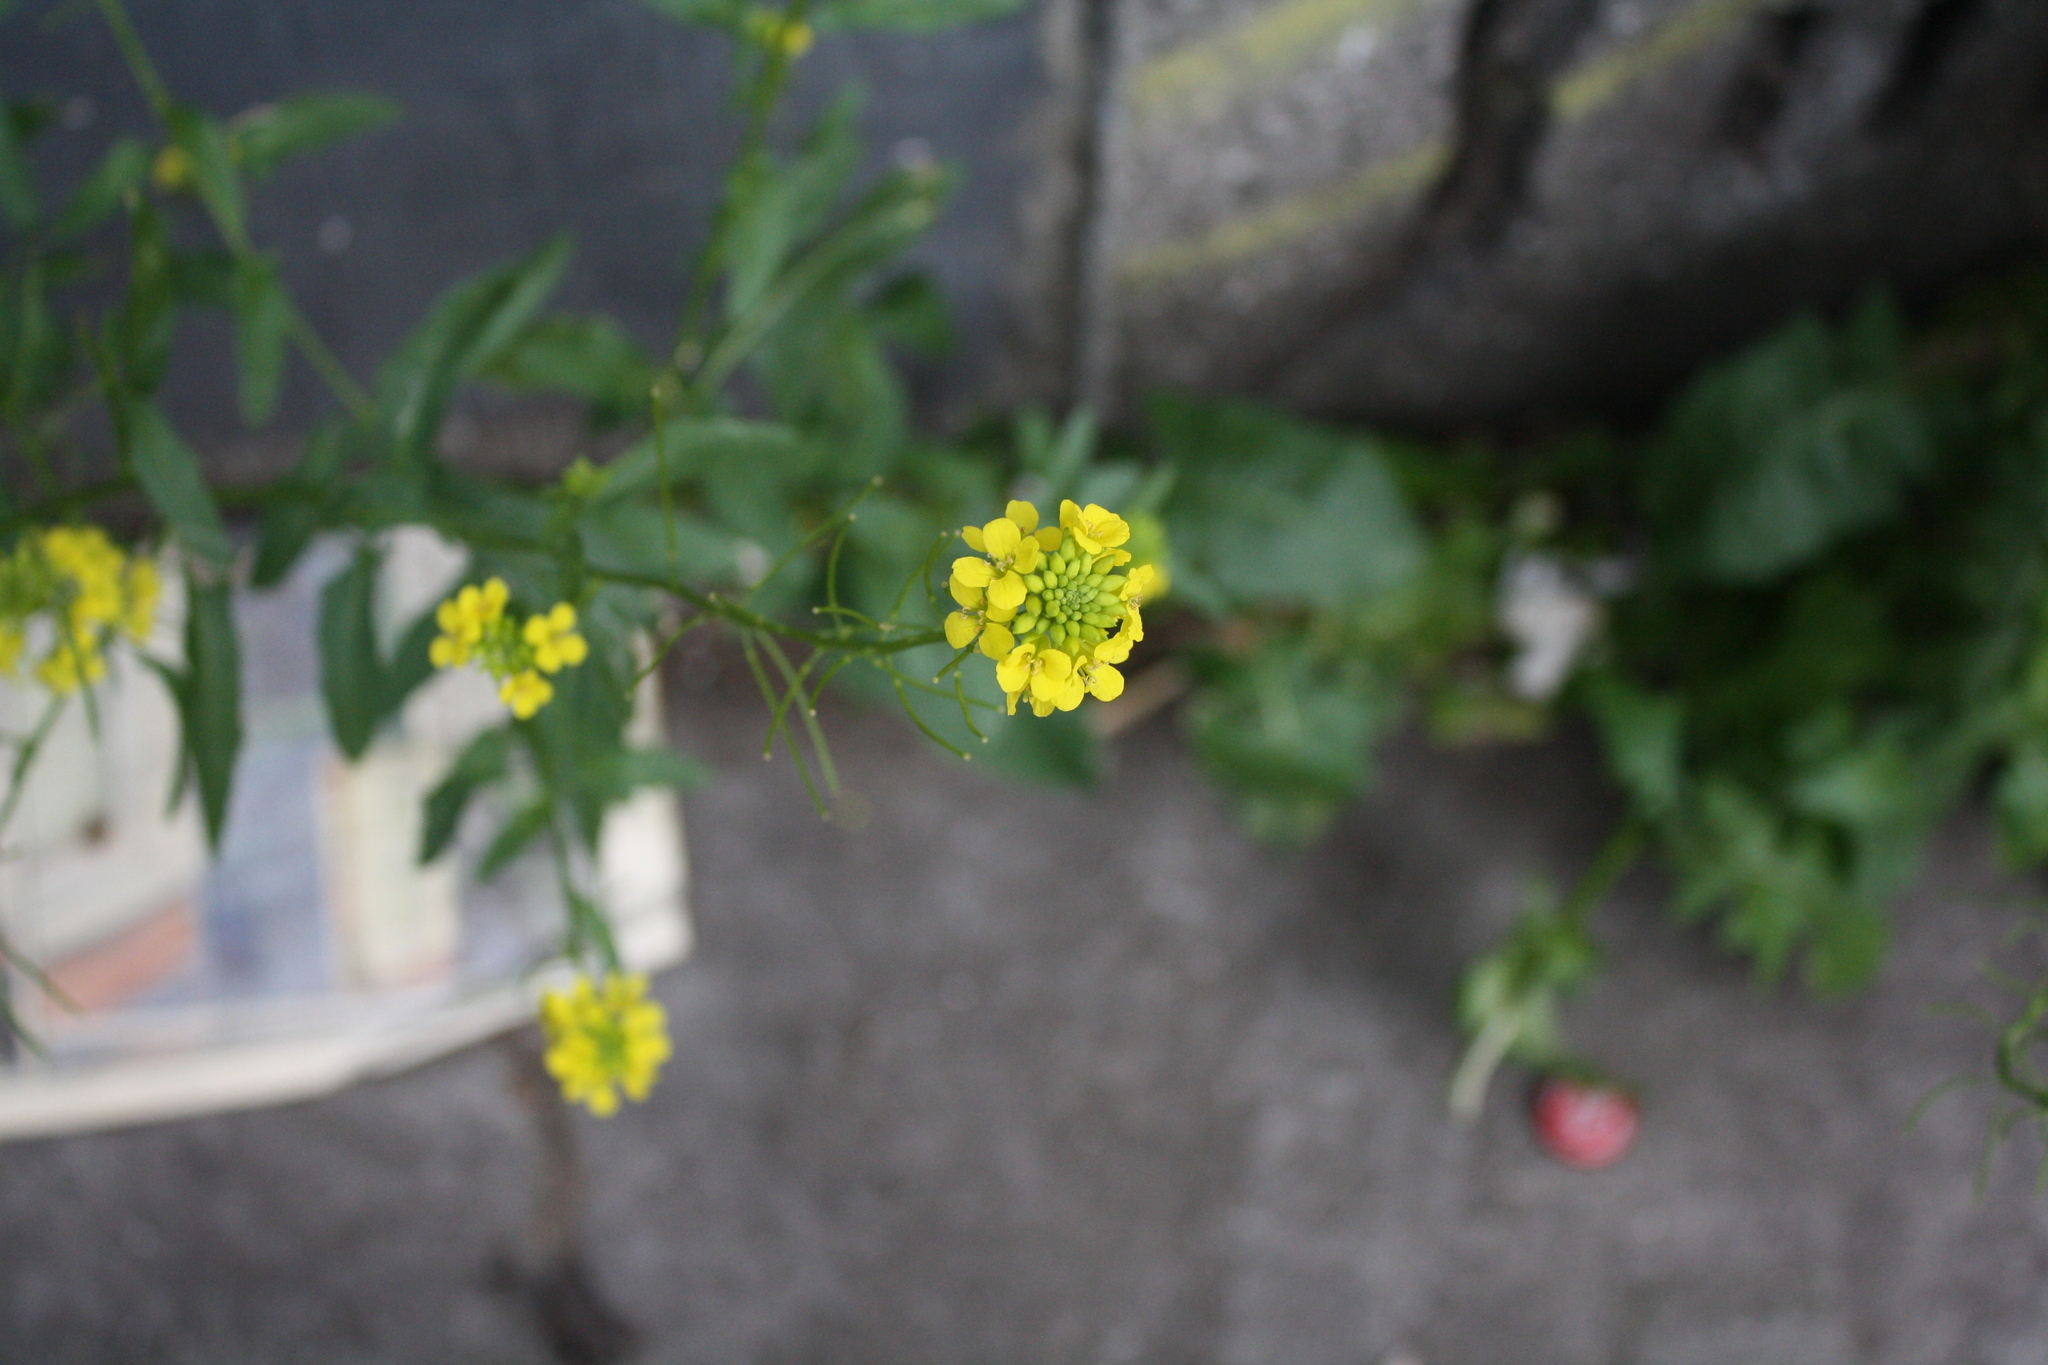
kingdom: Plantae
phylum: Tracheophyta
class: Magnoliopsida
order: Brassicales
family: Brassicaceae
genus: Sisymbrium
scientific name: Sisymbrium loeselii
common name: False london-rocket
